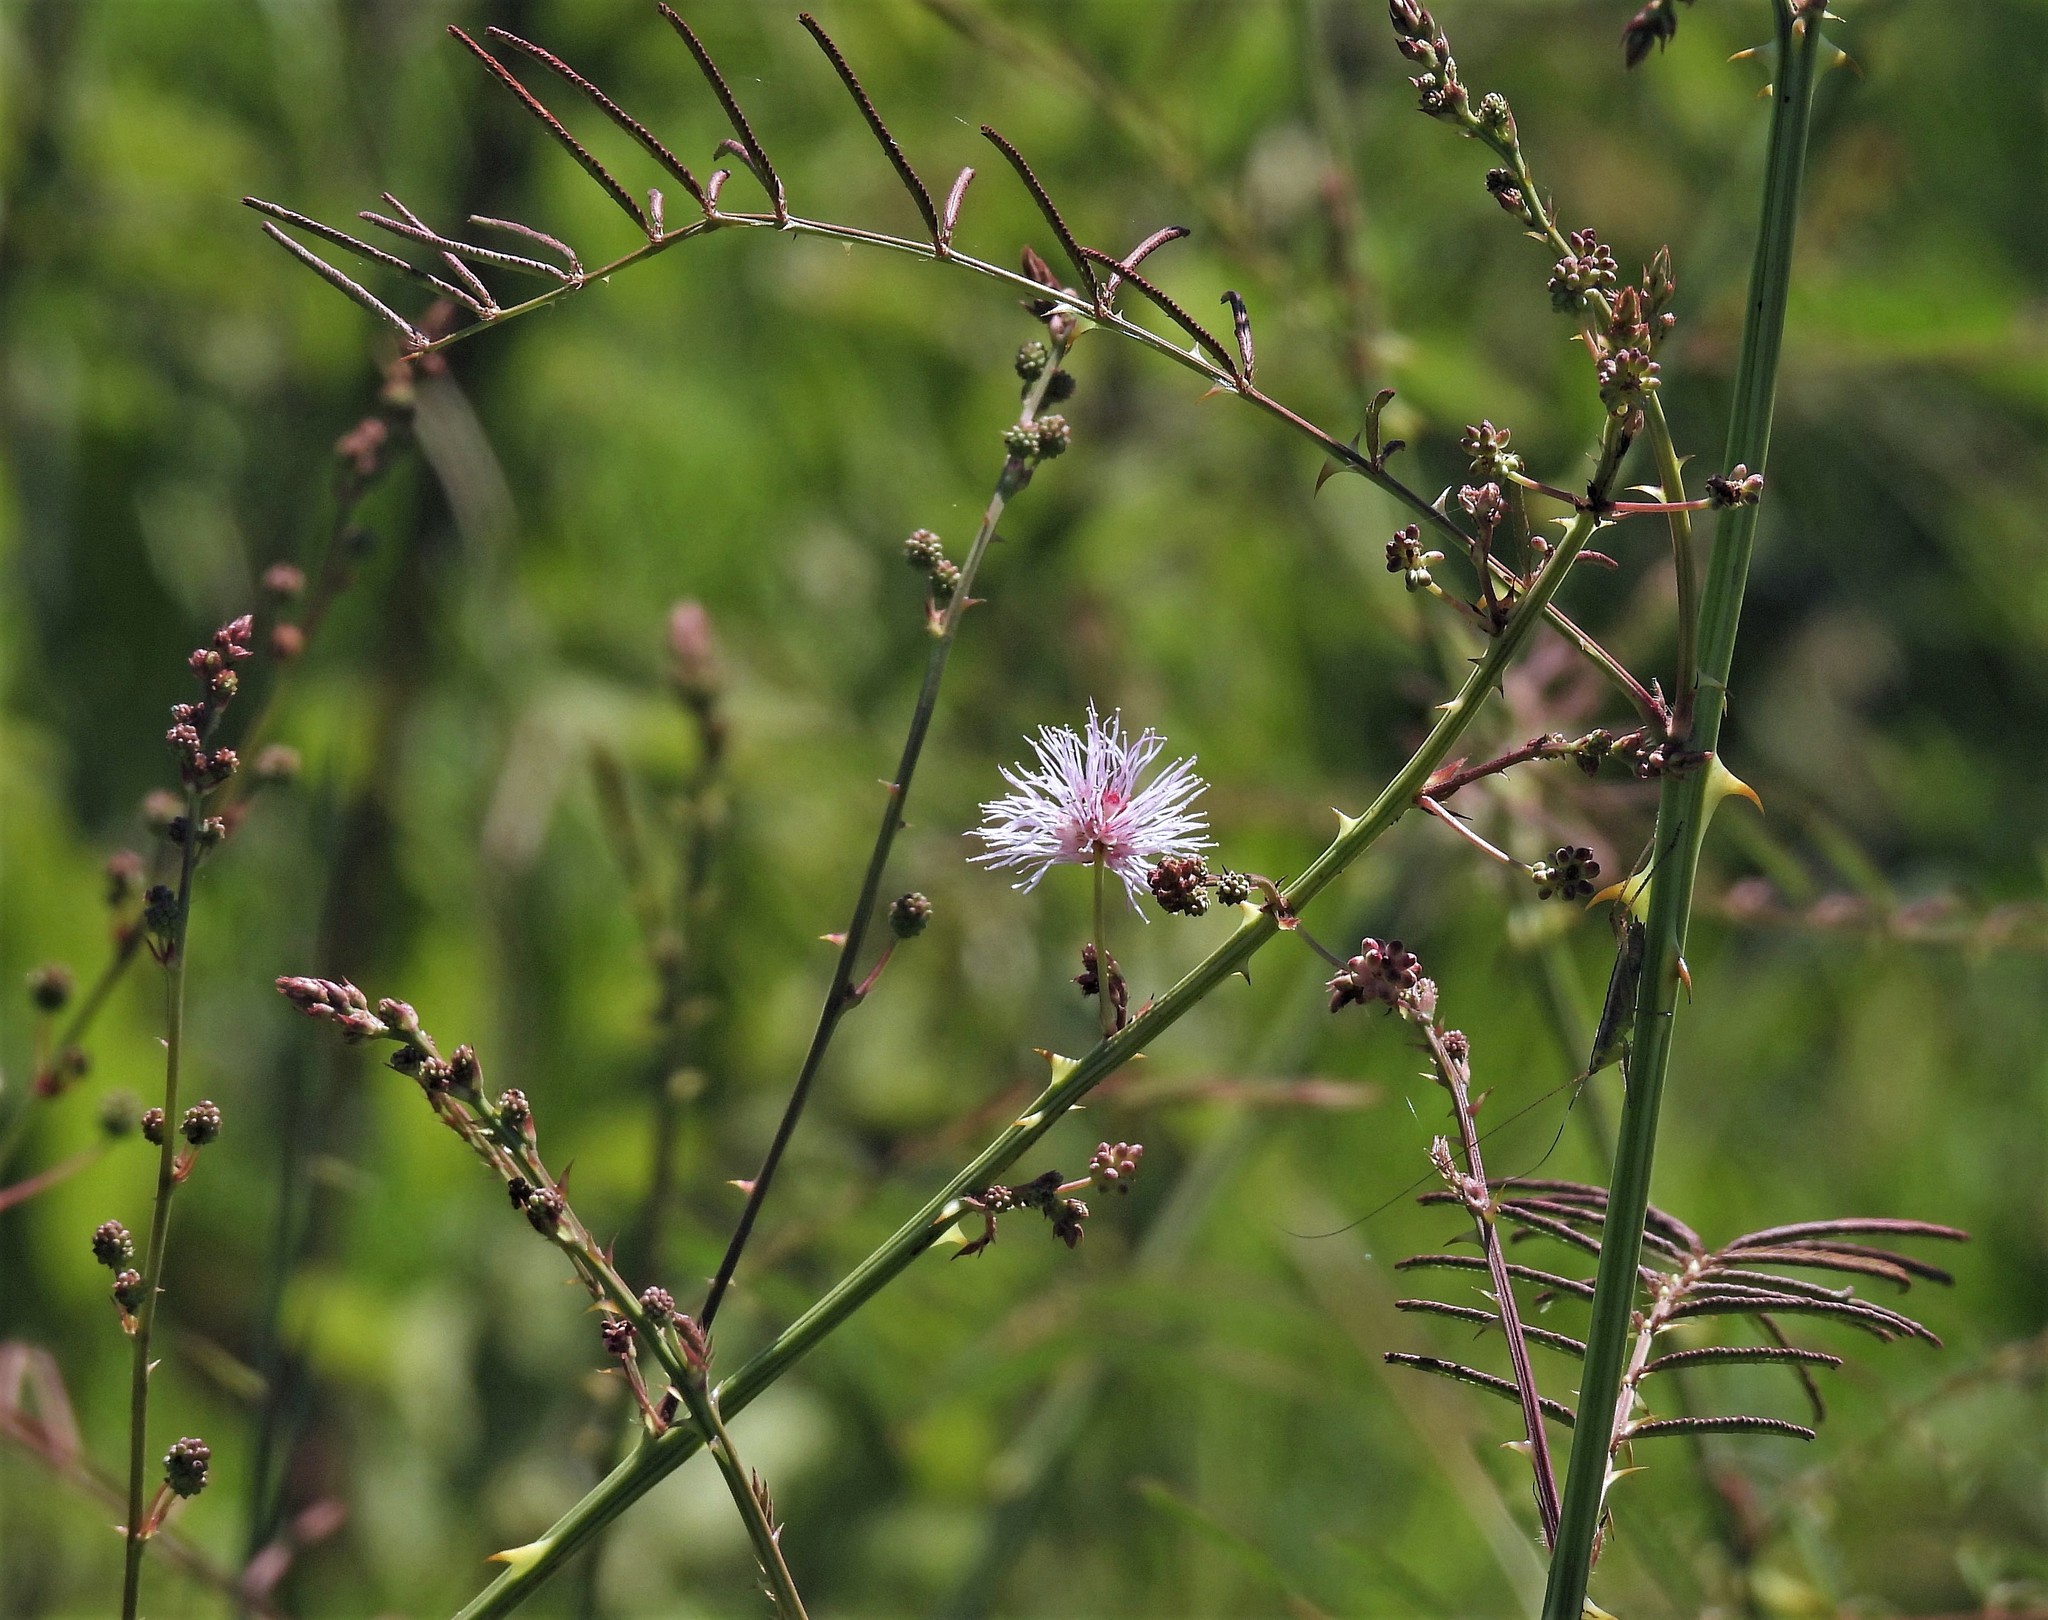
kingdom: Plantae
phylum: Tracheophyta
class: Magnoliopsida
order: Fabales
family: Fabaceae
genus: Mimosa
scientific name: Mimosa somnians
